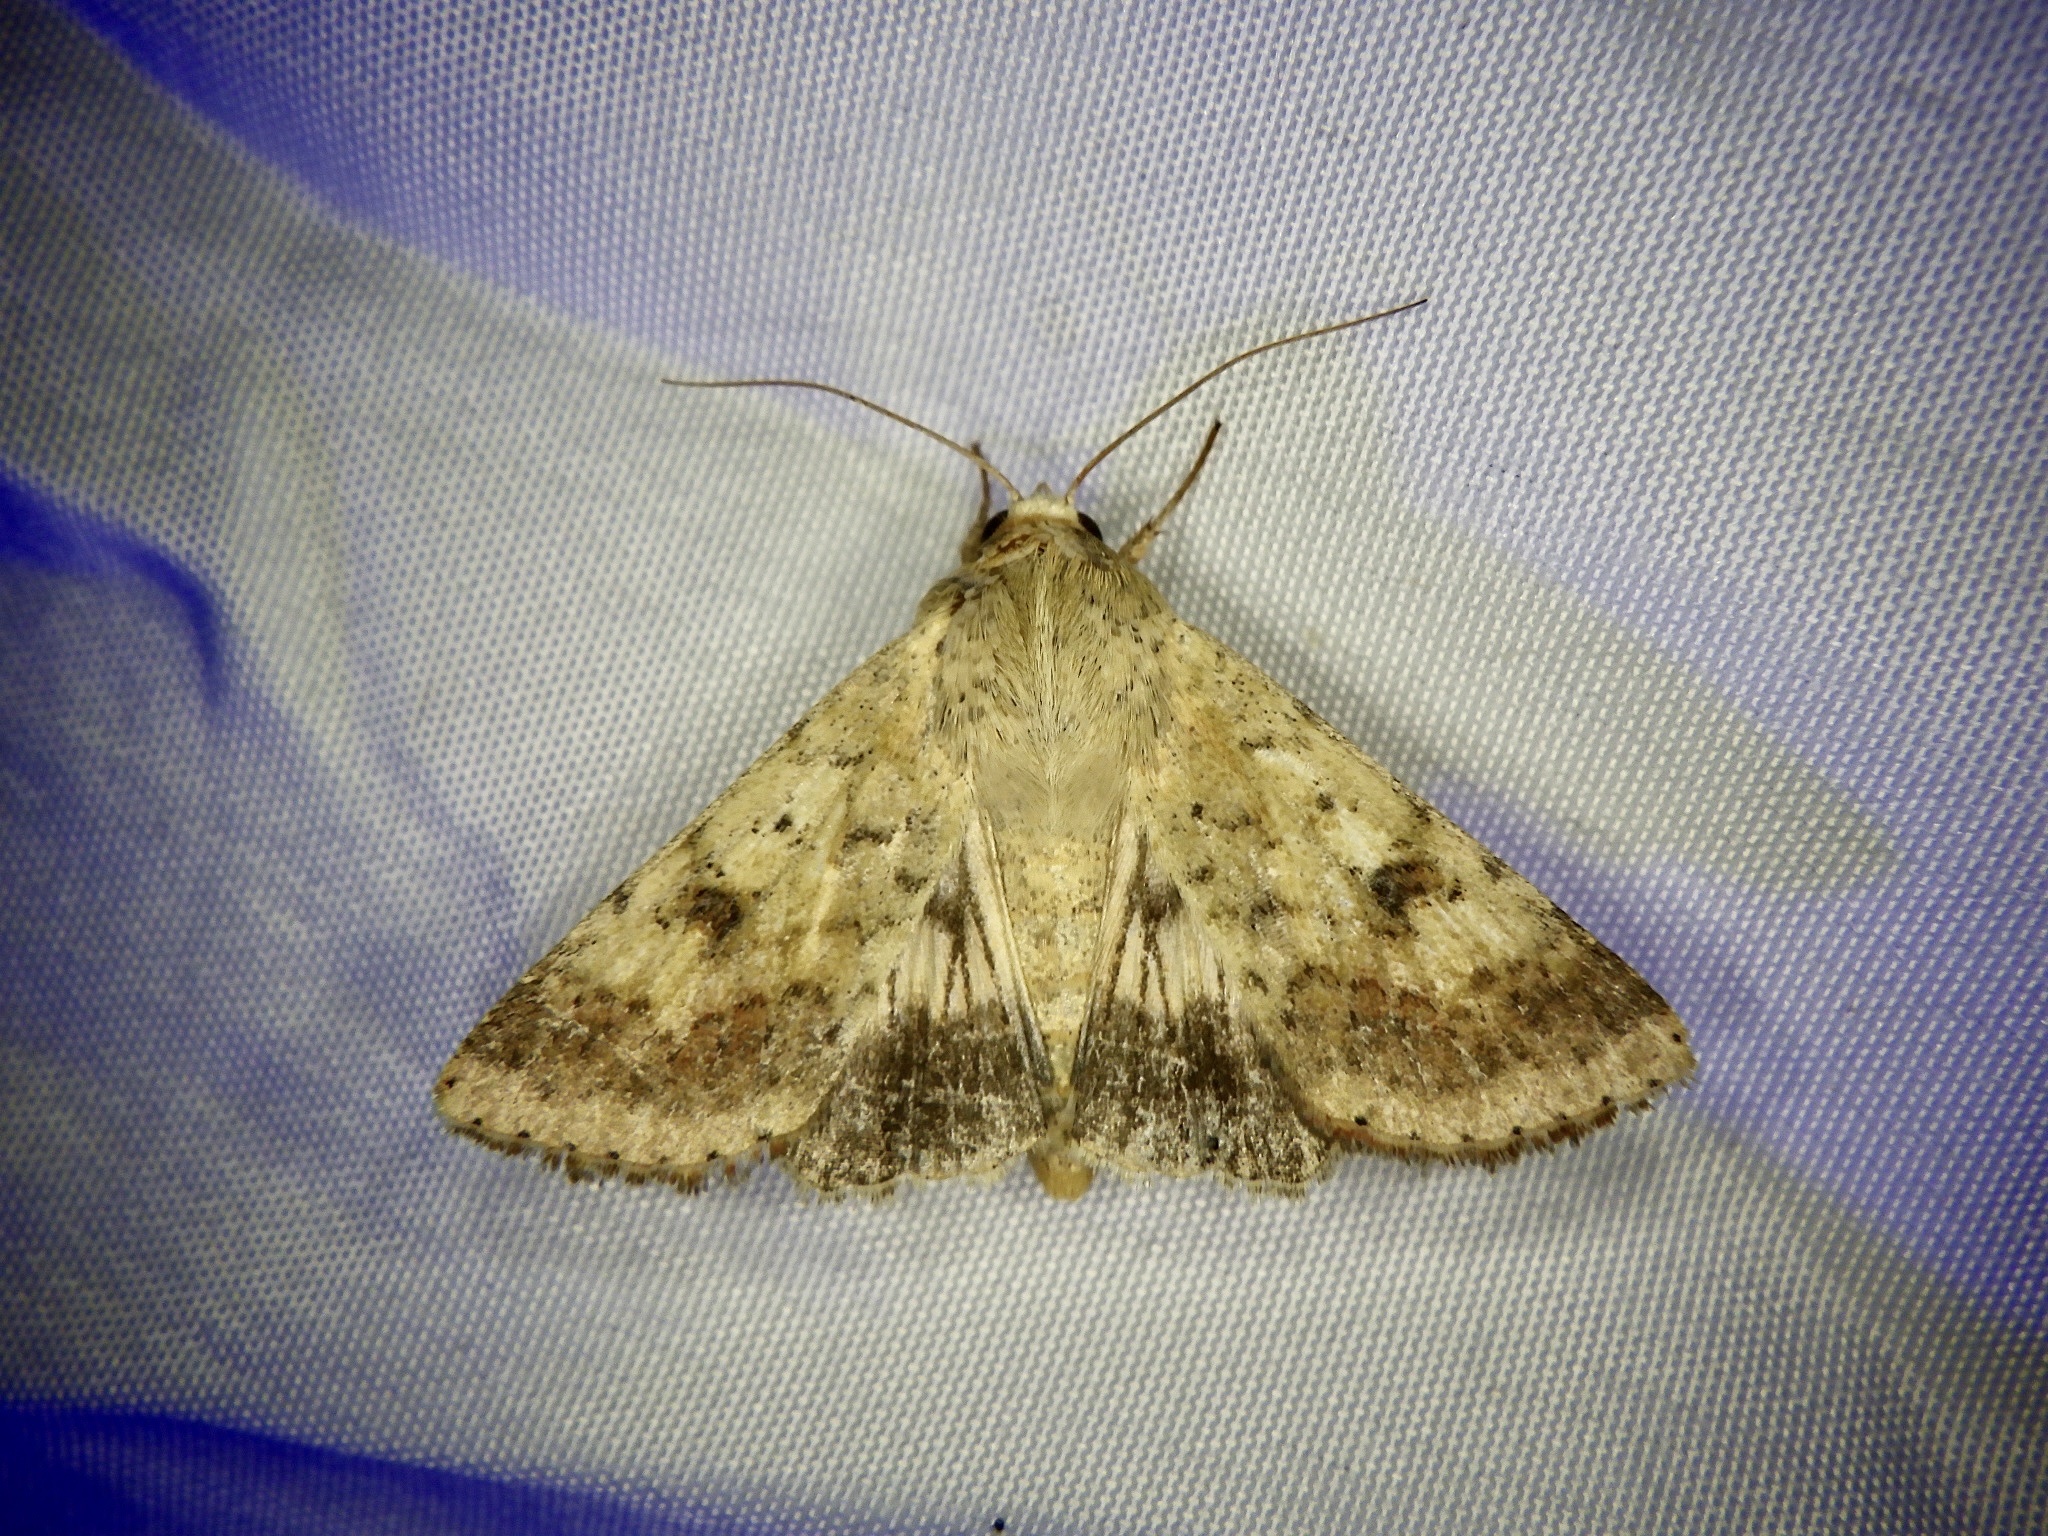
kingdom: Animalia
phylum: Arthropoda
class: Insecta
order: Lepidoptera
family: Noctuidae
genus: Helicoverpa
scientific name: Helicoverpa armigera
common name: Cotton bollworm
